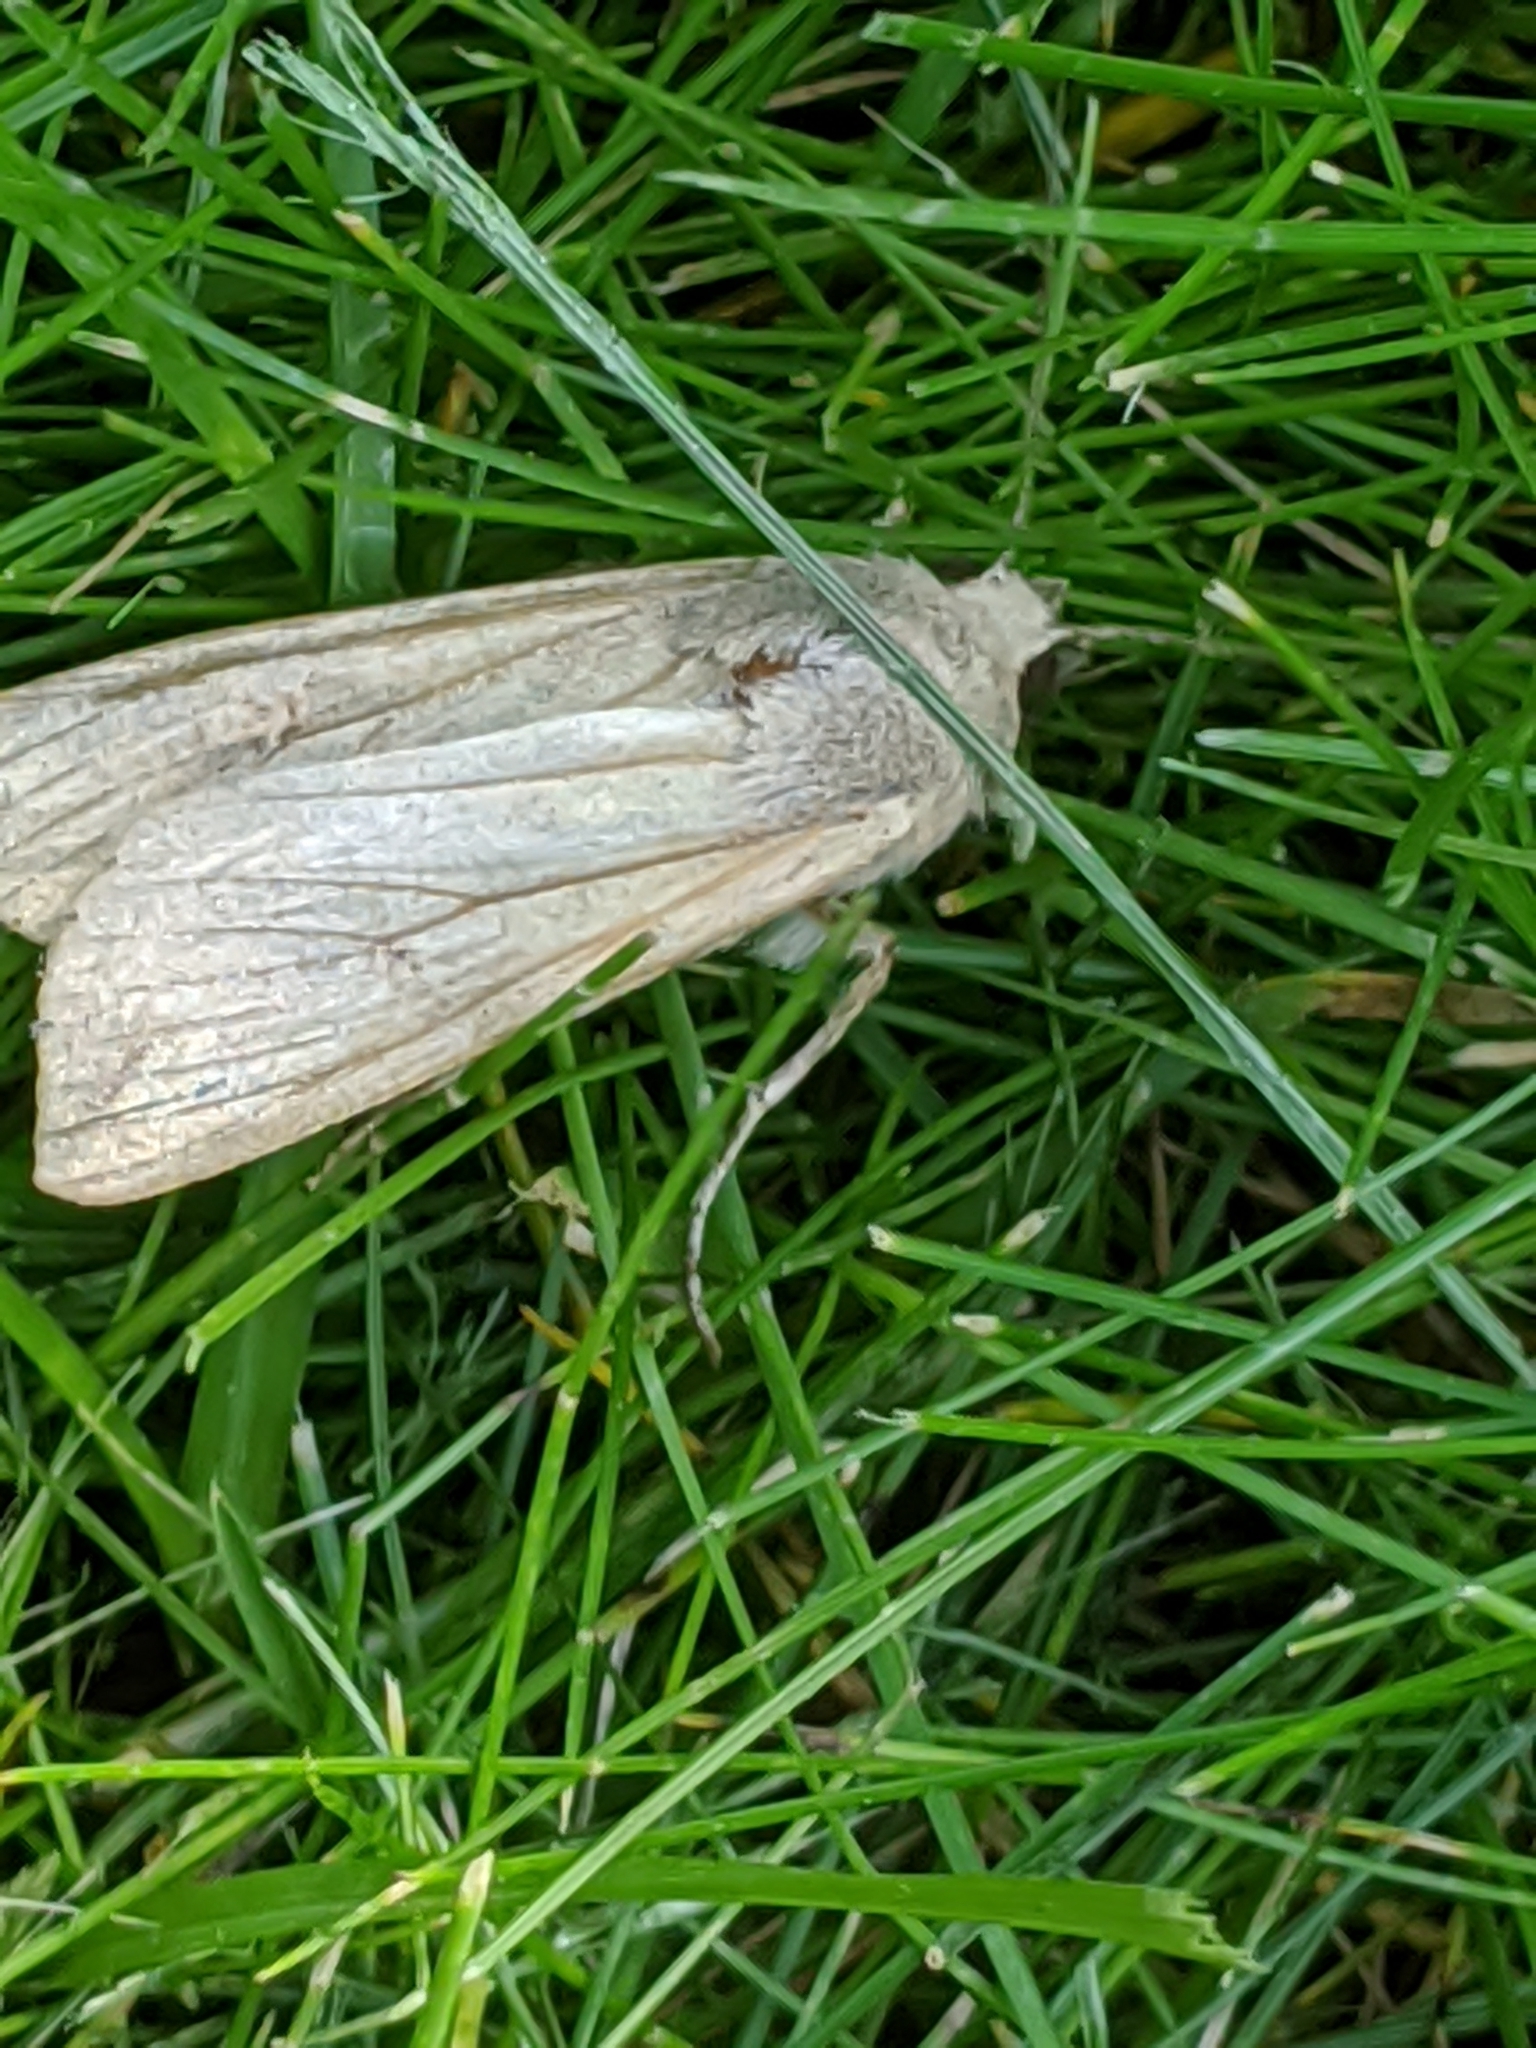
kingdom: Animalia
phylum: Arthropoda
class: Insecta
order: Lepidoptera
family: Noctuidae
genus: Mythimna
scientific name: Mythimna unipuncta
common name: White-speck
